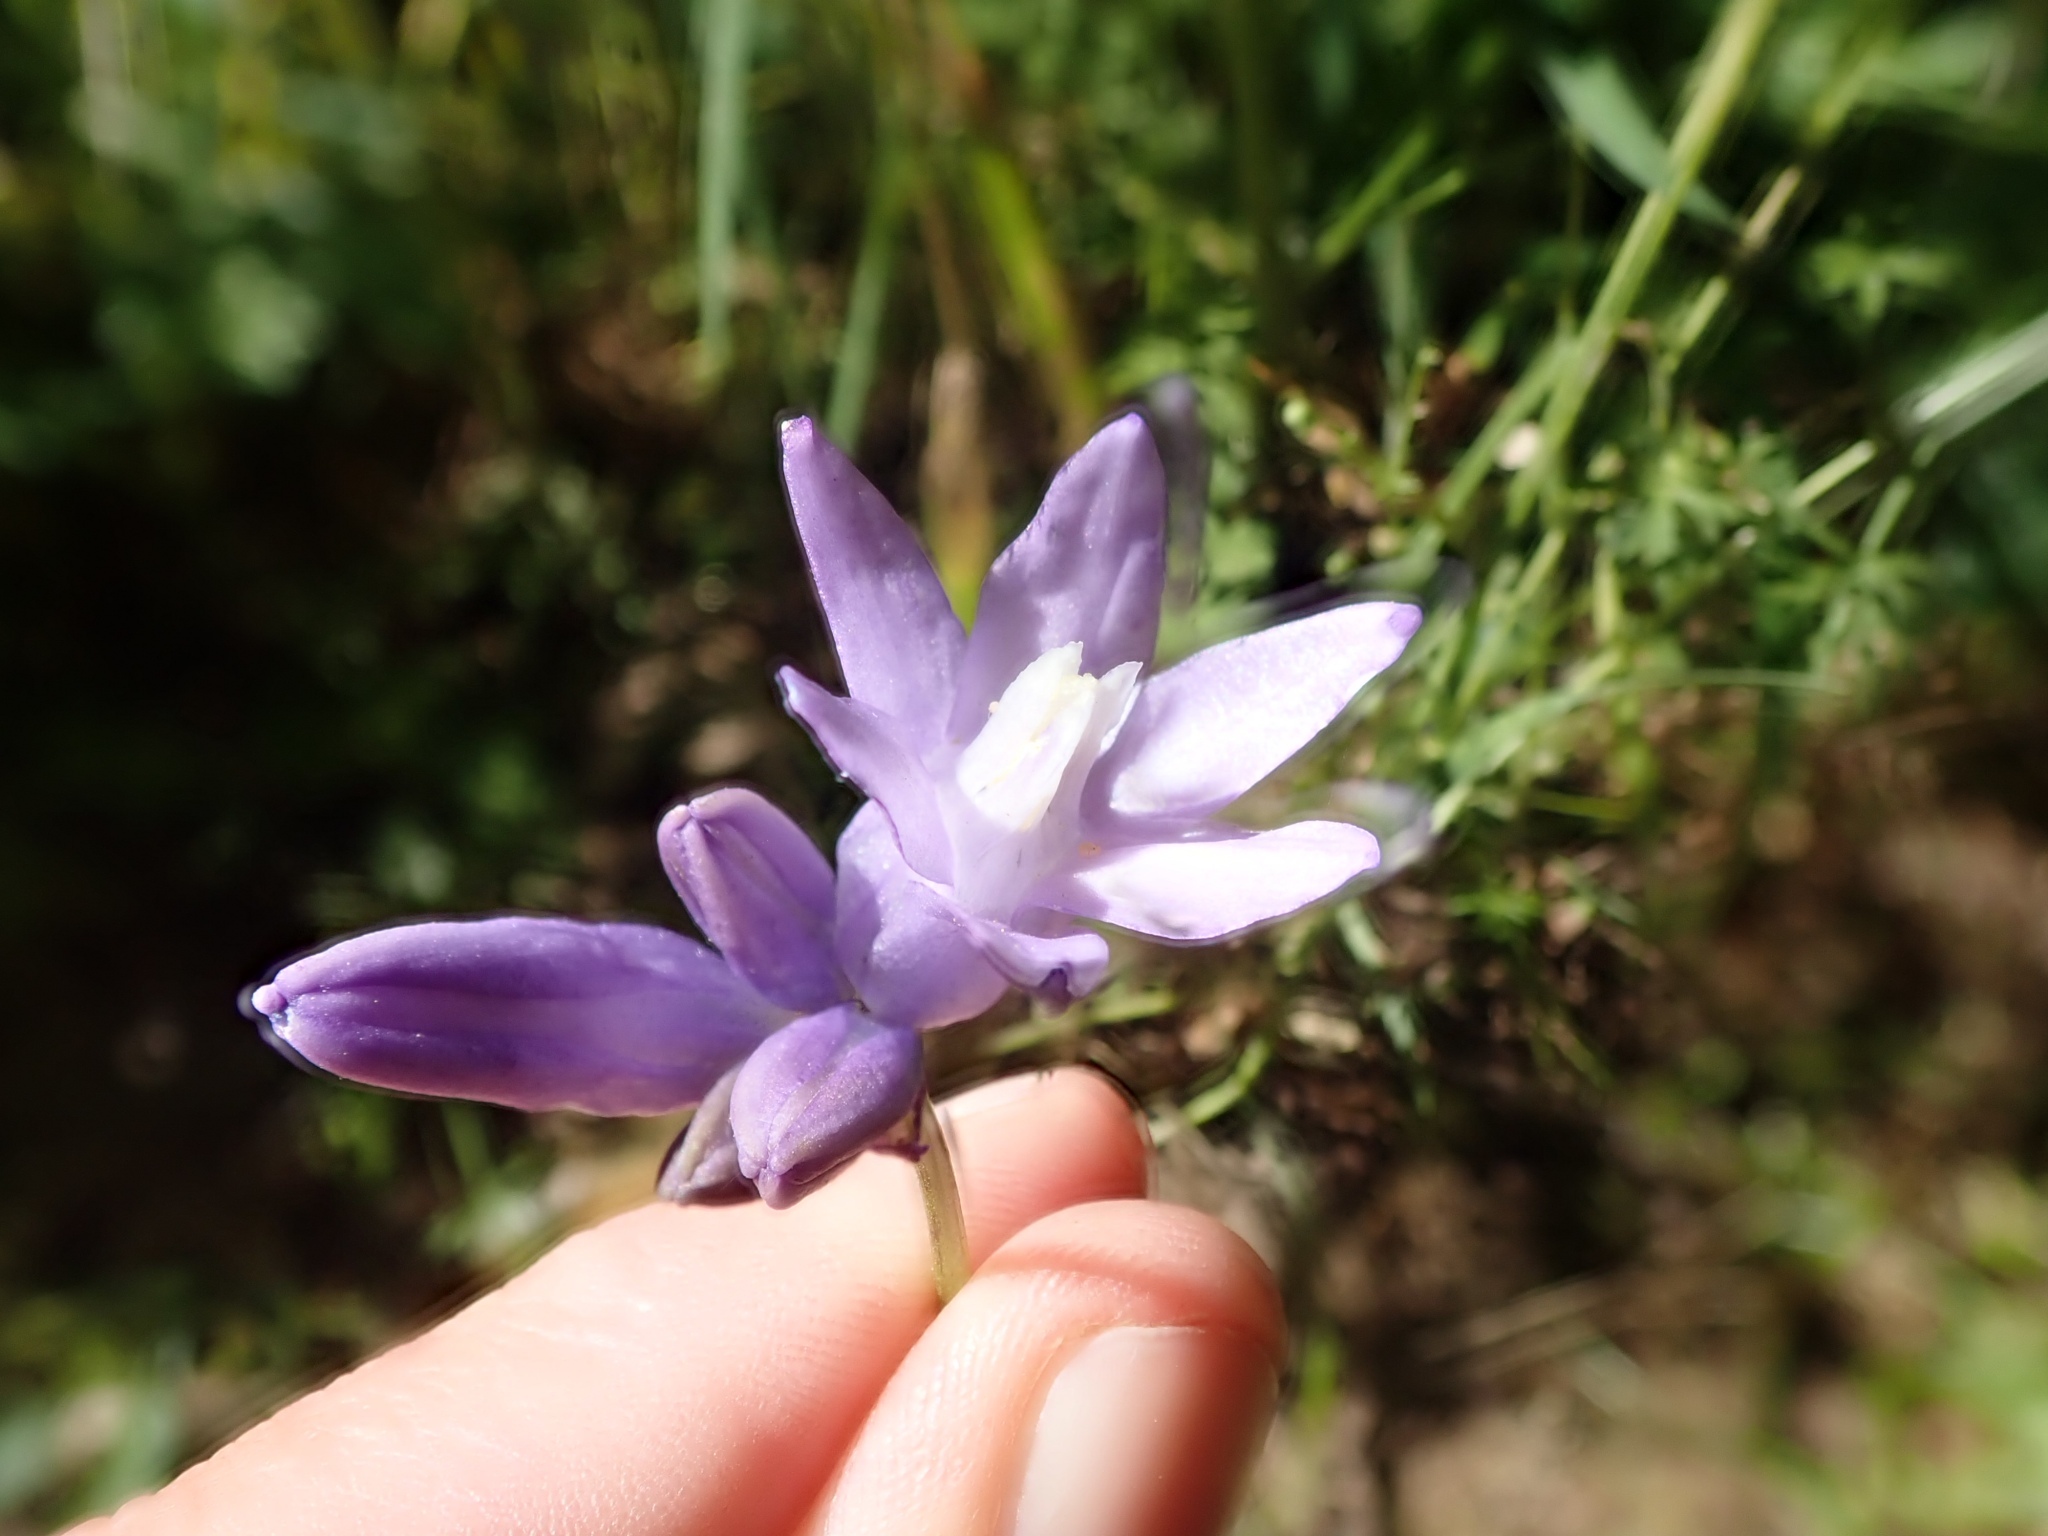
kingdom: Plantae
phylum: Tracheophyta
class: Liliopsida
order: Asparagales
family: Asparagaceae
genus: Dipterostemon
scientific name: Dipterostemon capitatus
